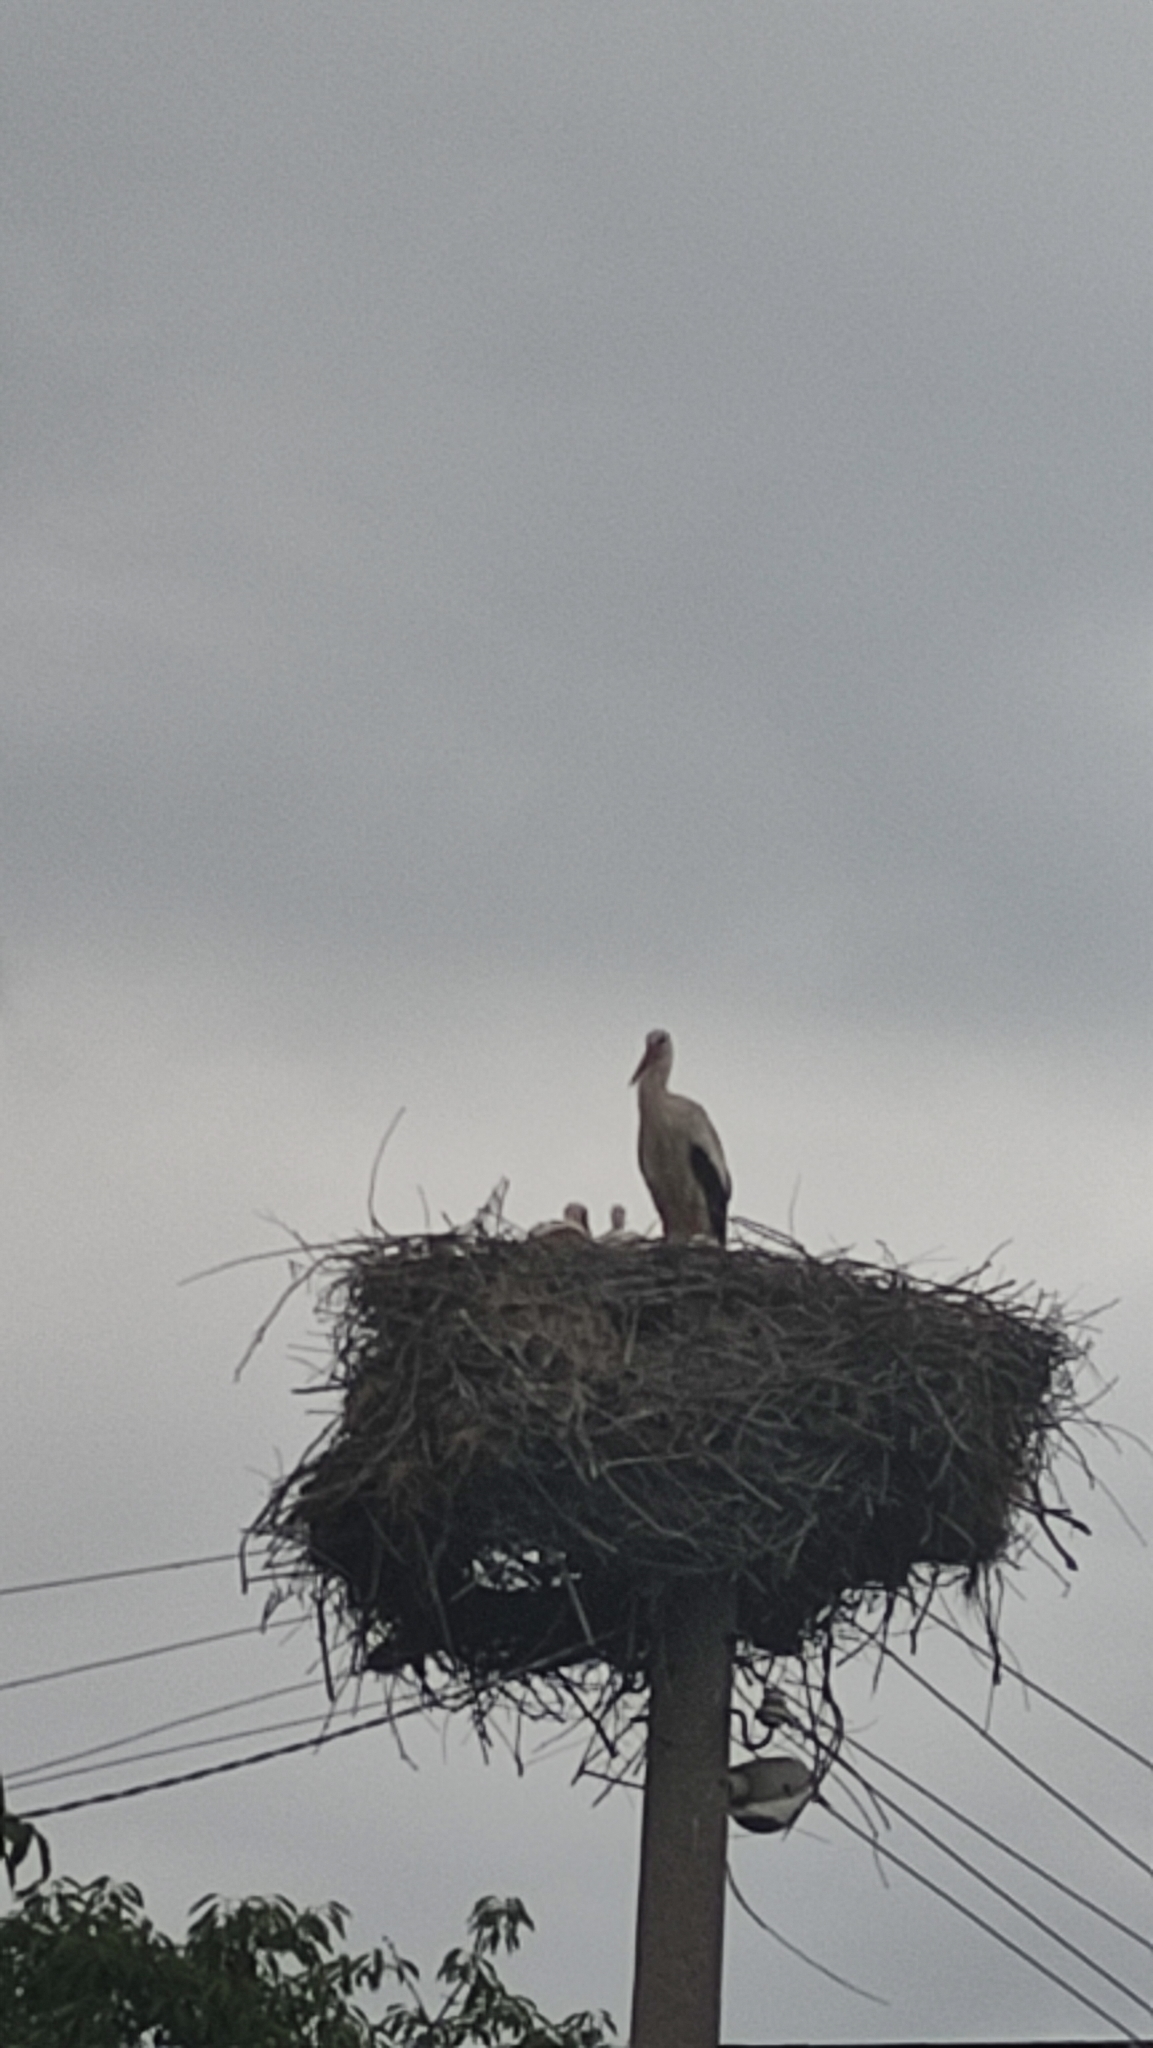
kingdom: Animalia
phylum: Chordata
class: Aves
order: Ciconiiformes
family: Ciconiidae
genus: Ciconia
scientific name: Ciconia ciconia
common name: White stork
